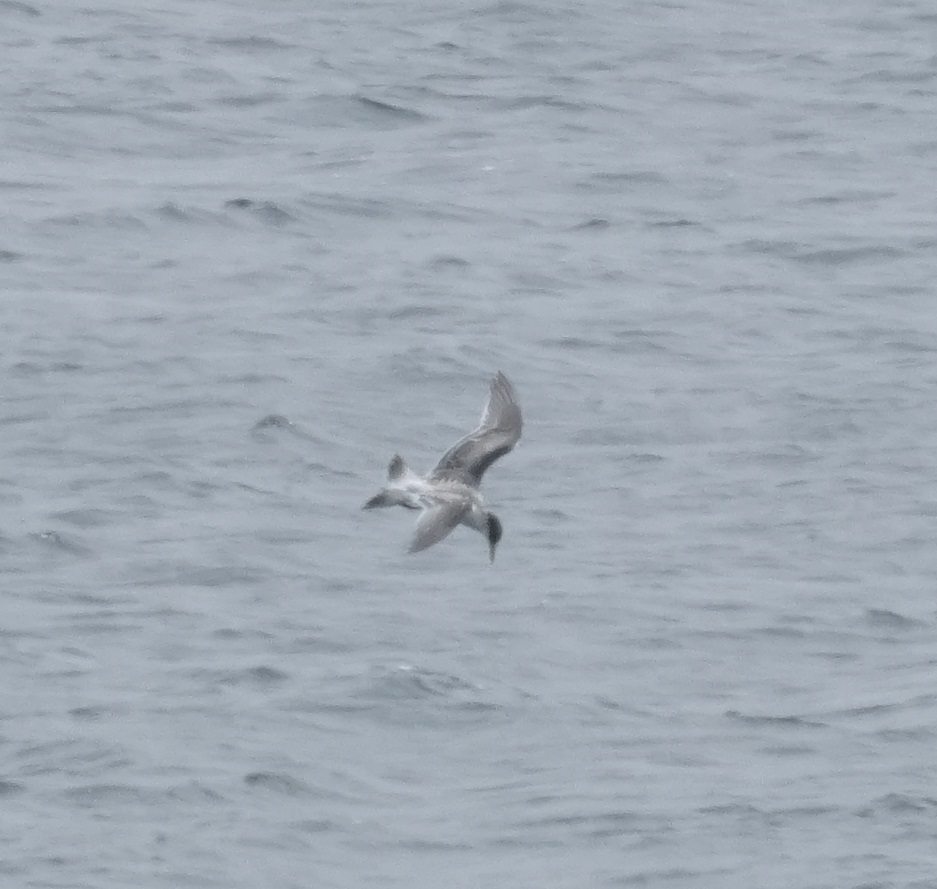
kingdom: Animalia
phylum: Chordata
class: Aves
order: Charadriiformes
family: Laridae
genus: Thalasseus
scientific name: Thalasseus bergii
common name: Greater crested tern
